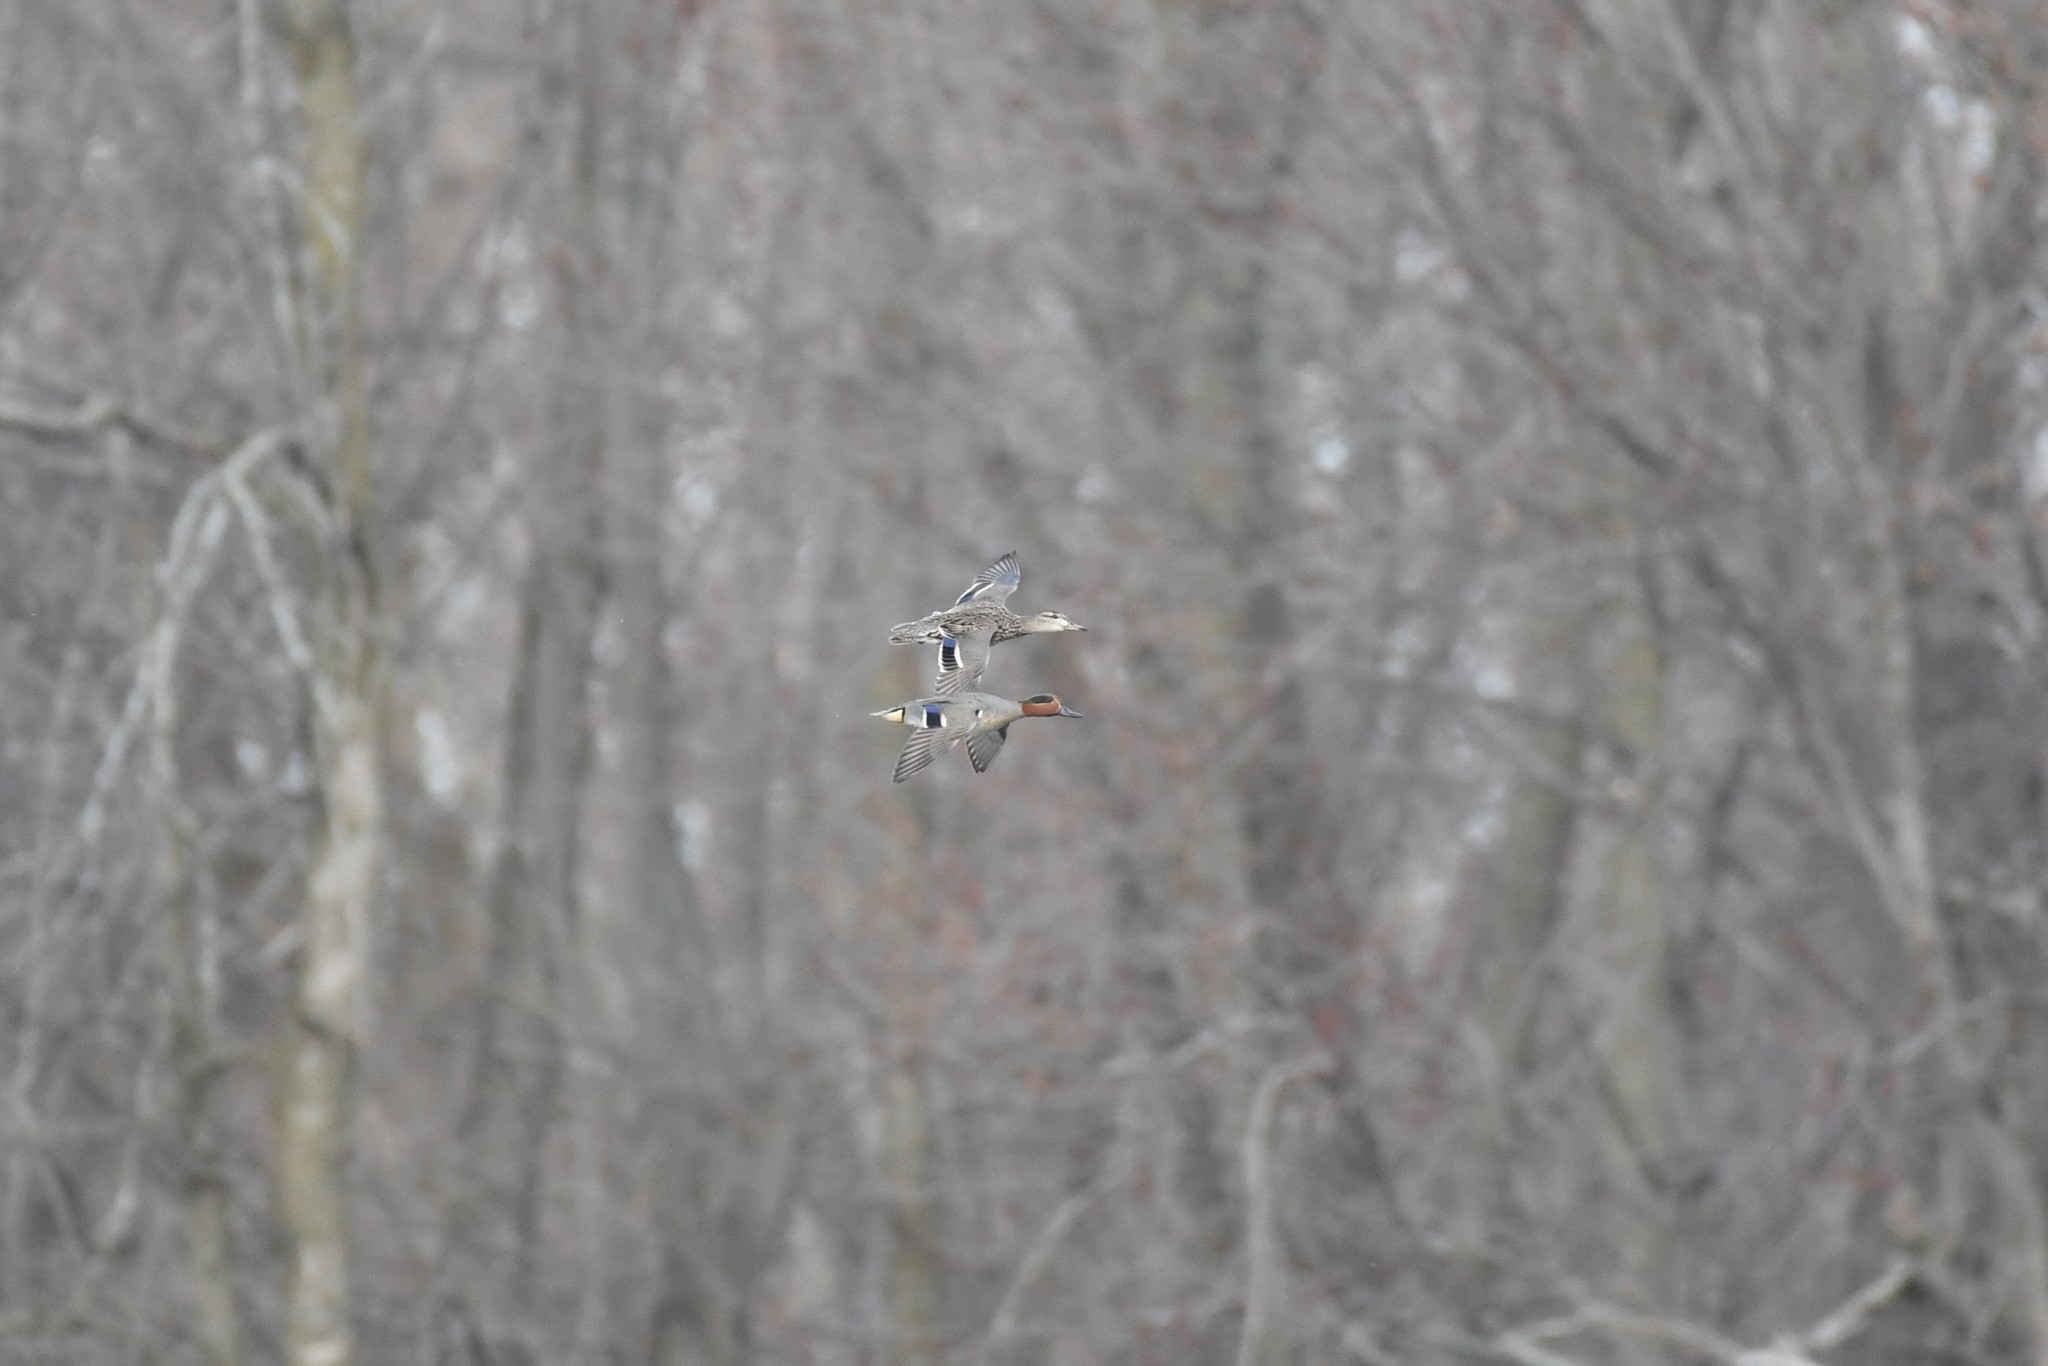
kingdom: Animalia
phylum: Chordata
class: Aves
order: Anseriformes
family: Anatidae
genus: Anas
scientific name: Anas crecca
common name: Eurasian teal
